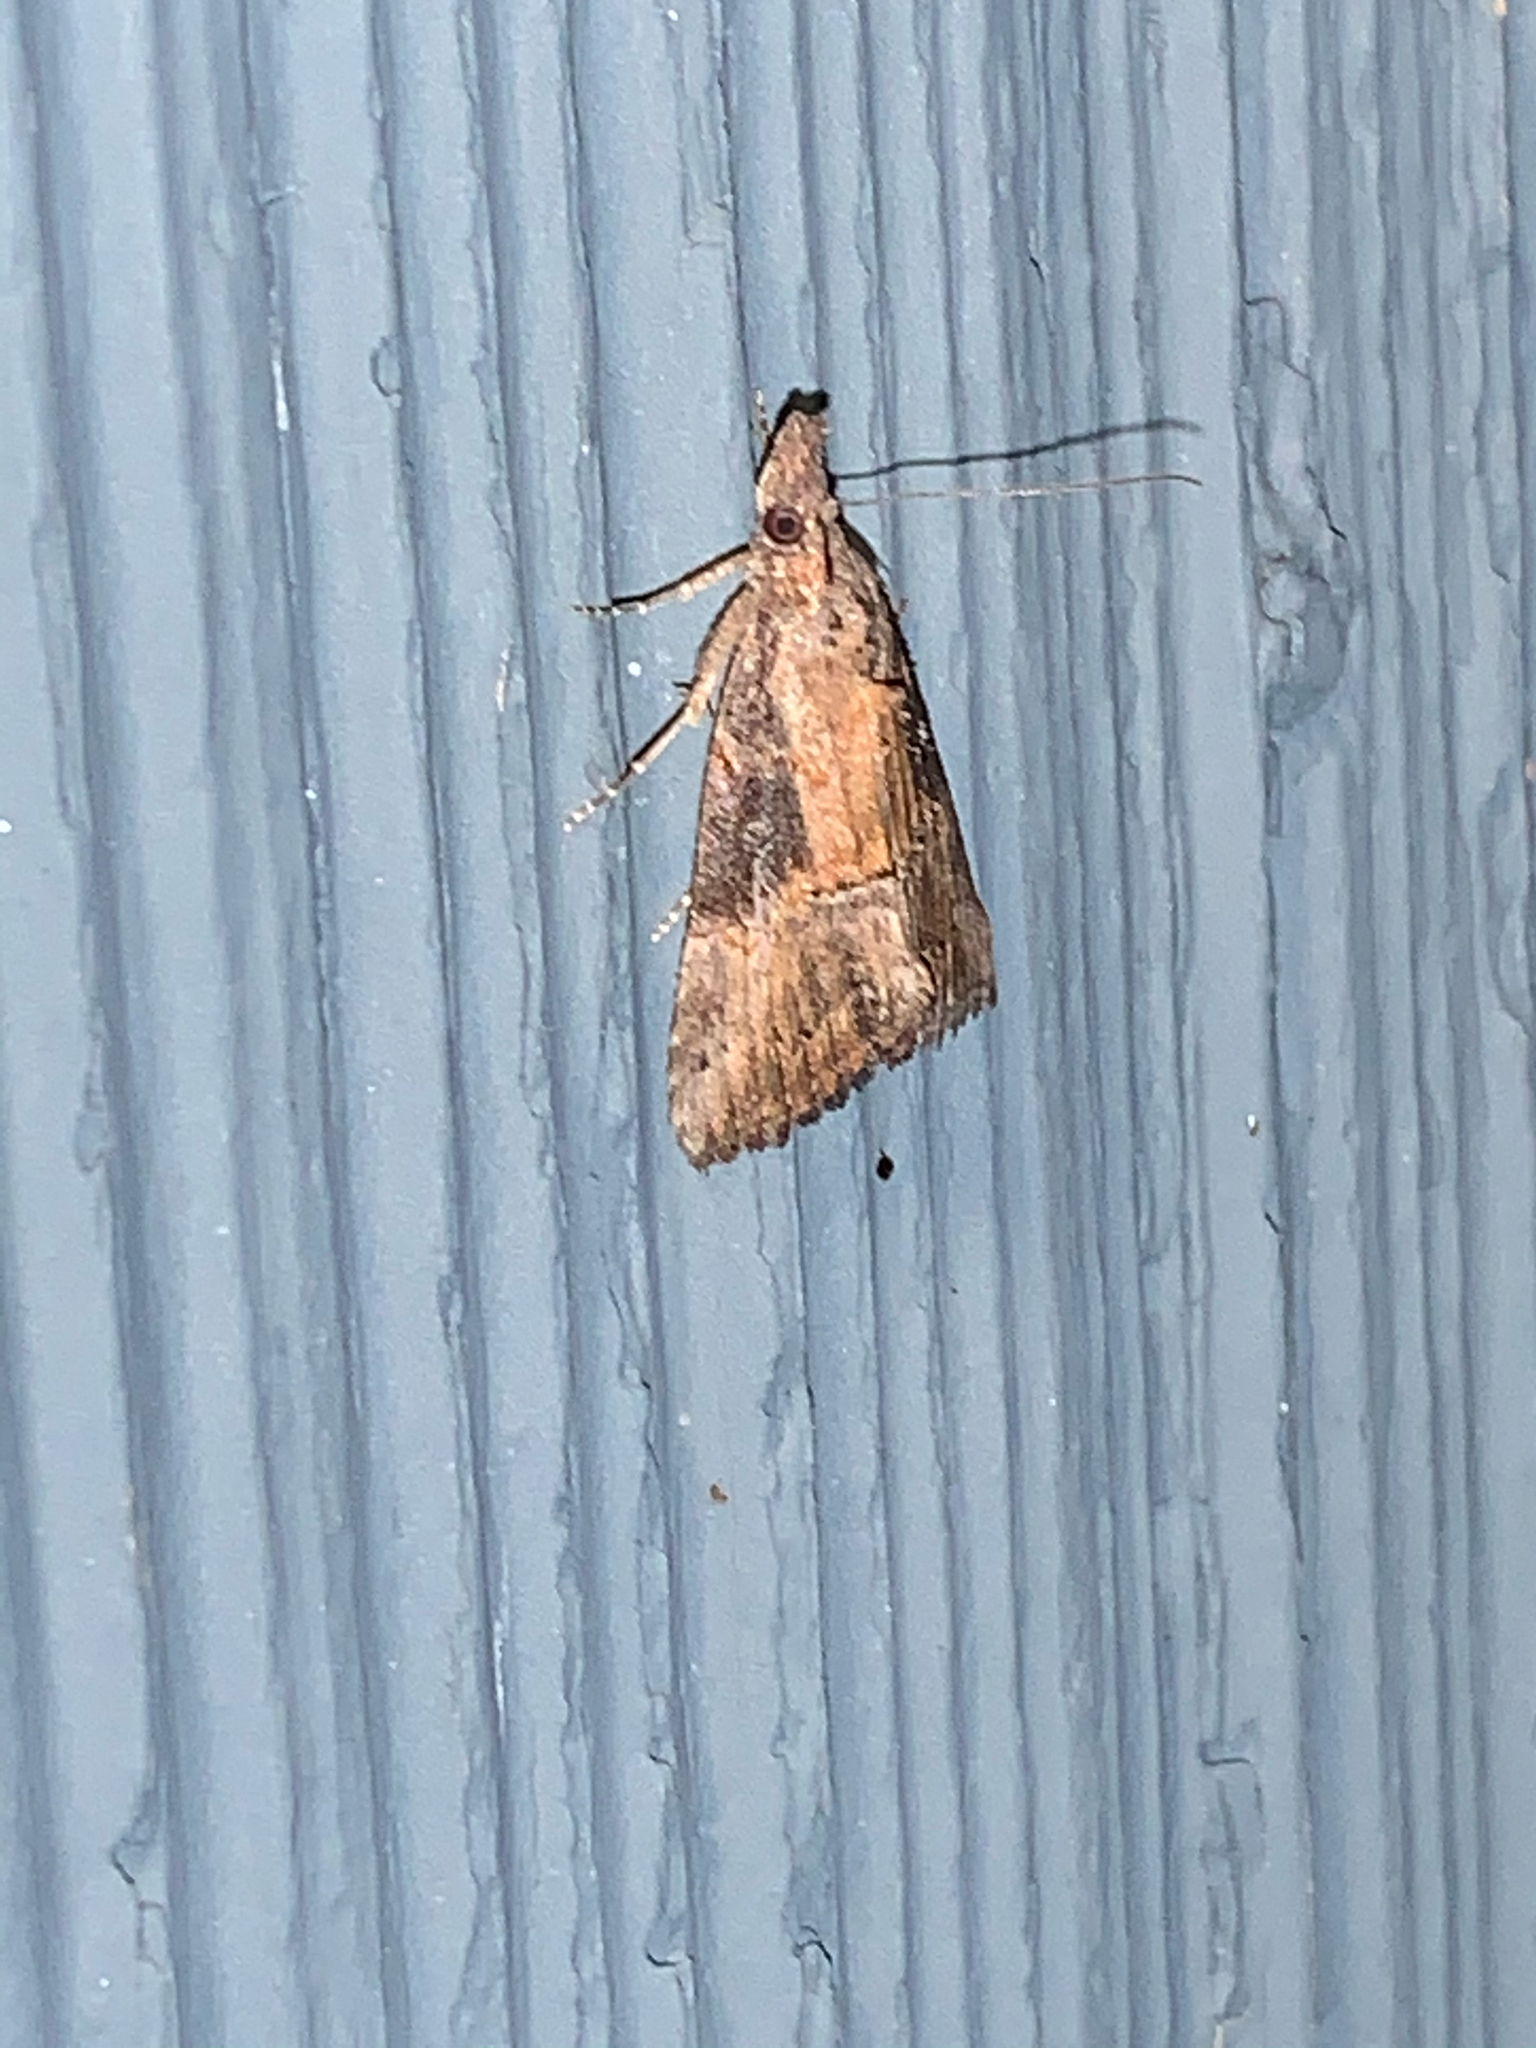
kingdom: Animalia
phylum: Arthropoda
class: Insecta
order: Lepidoptera
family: Erebidae
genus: Hypena
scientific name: Hypena scabra
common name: Green cloverworm
